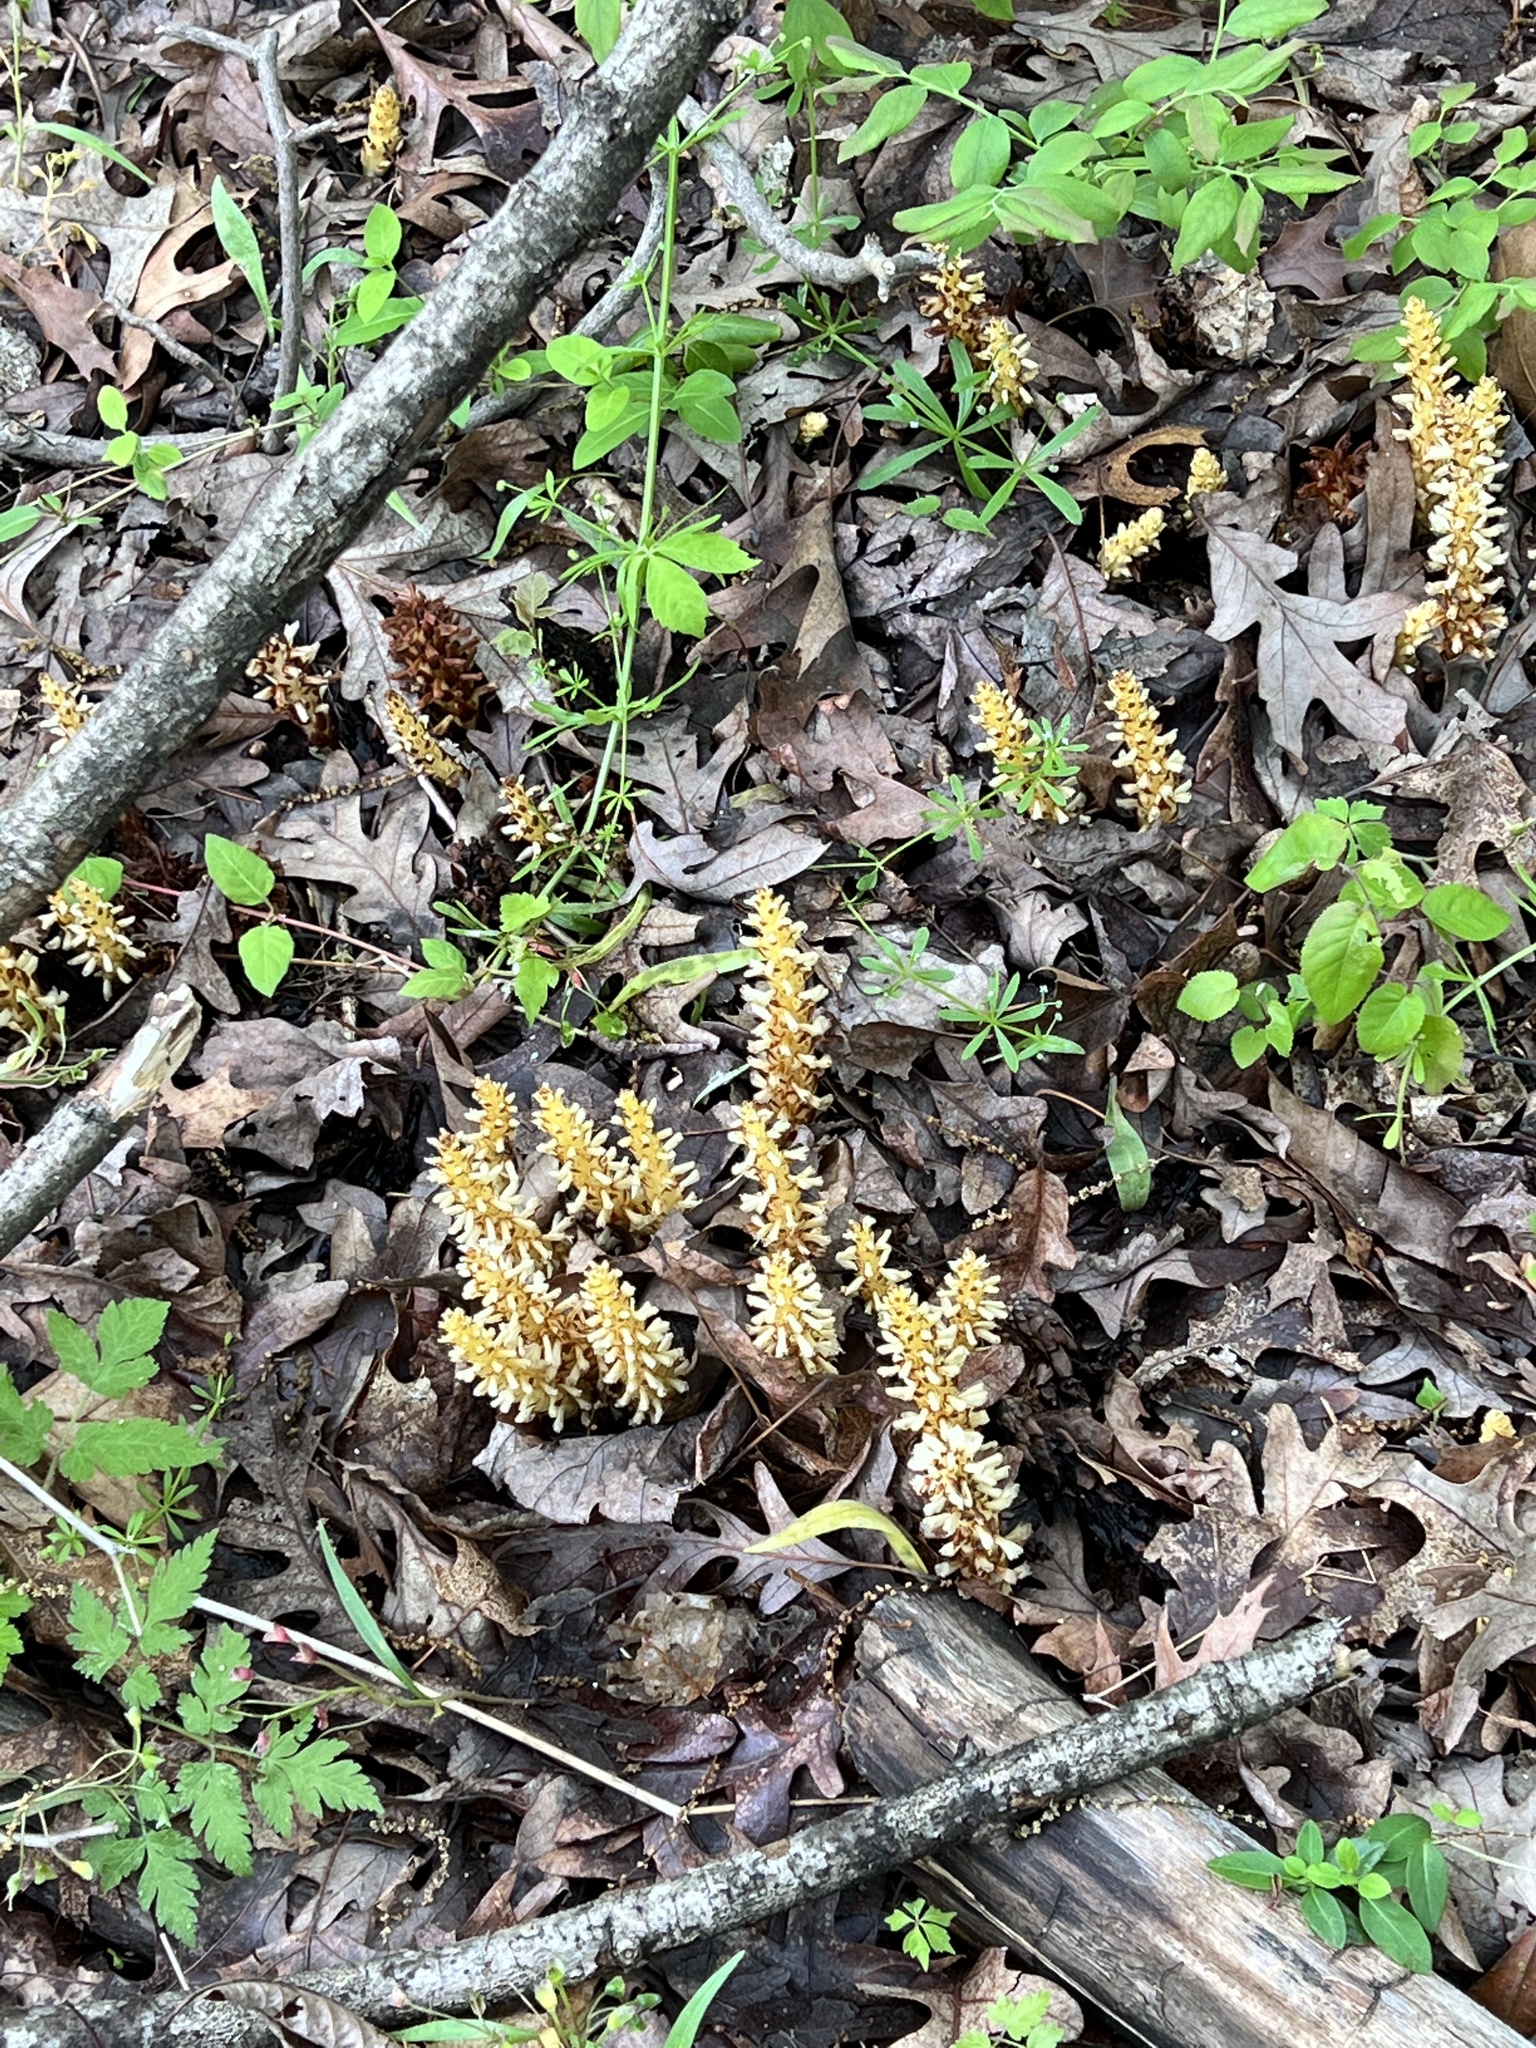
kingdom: Plantae
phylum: Tracheophyta
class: Magnoliopsida
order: Lamiales
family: Orobanchaceae
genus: Conopholis
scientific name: Conopholis americana
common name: American cancer-root
